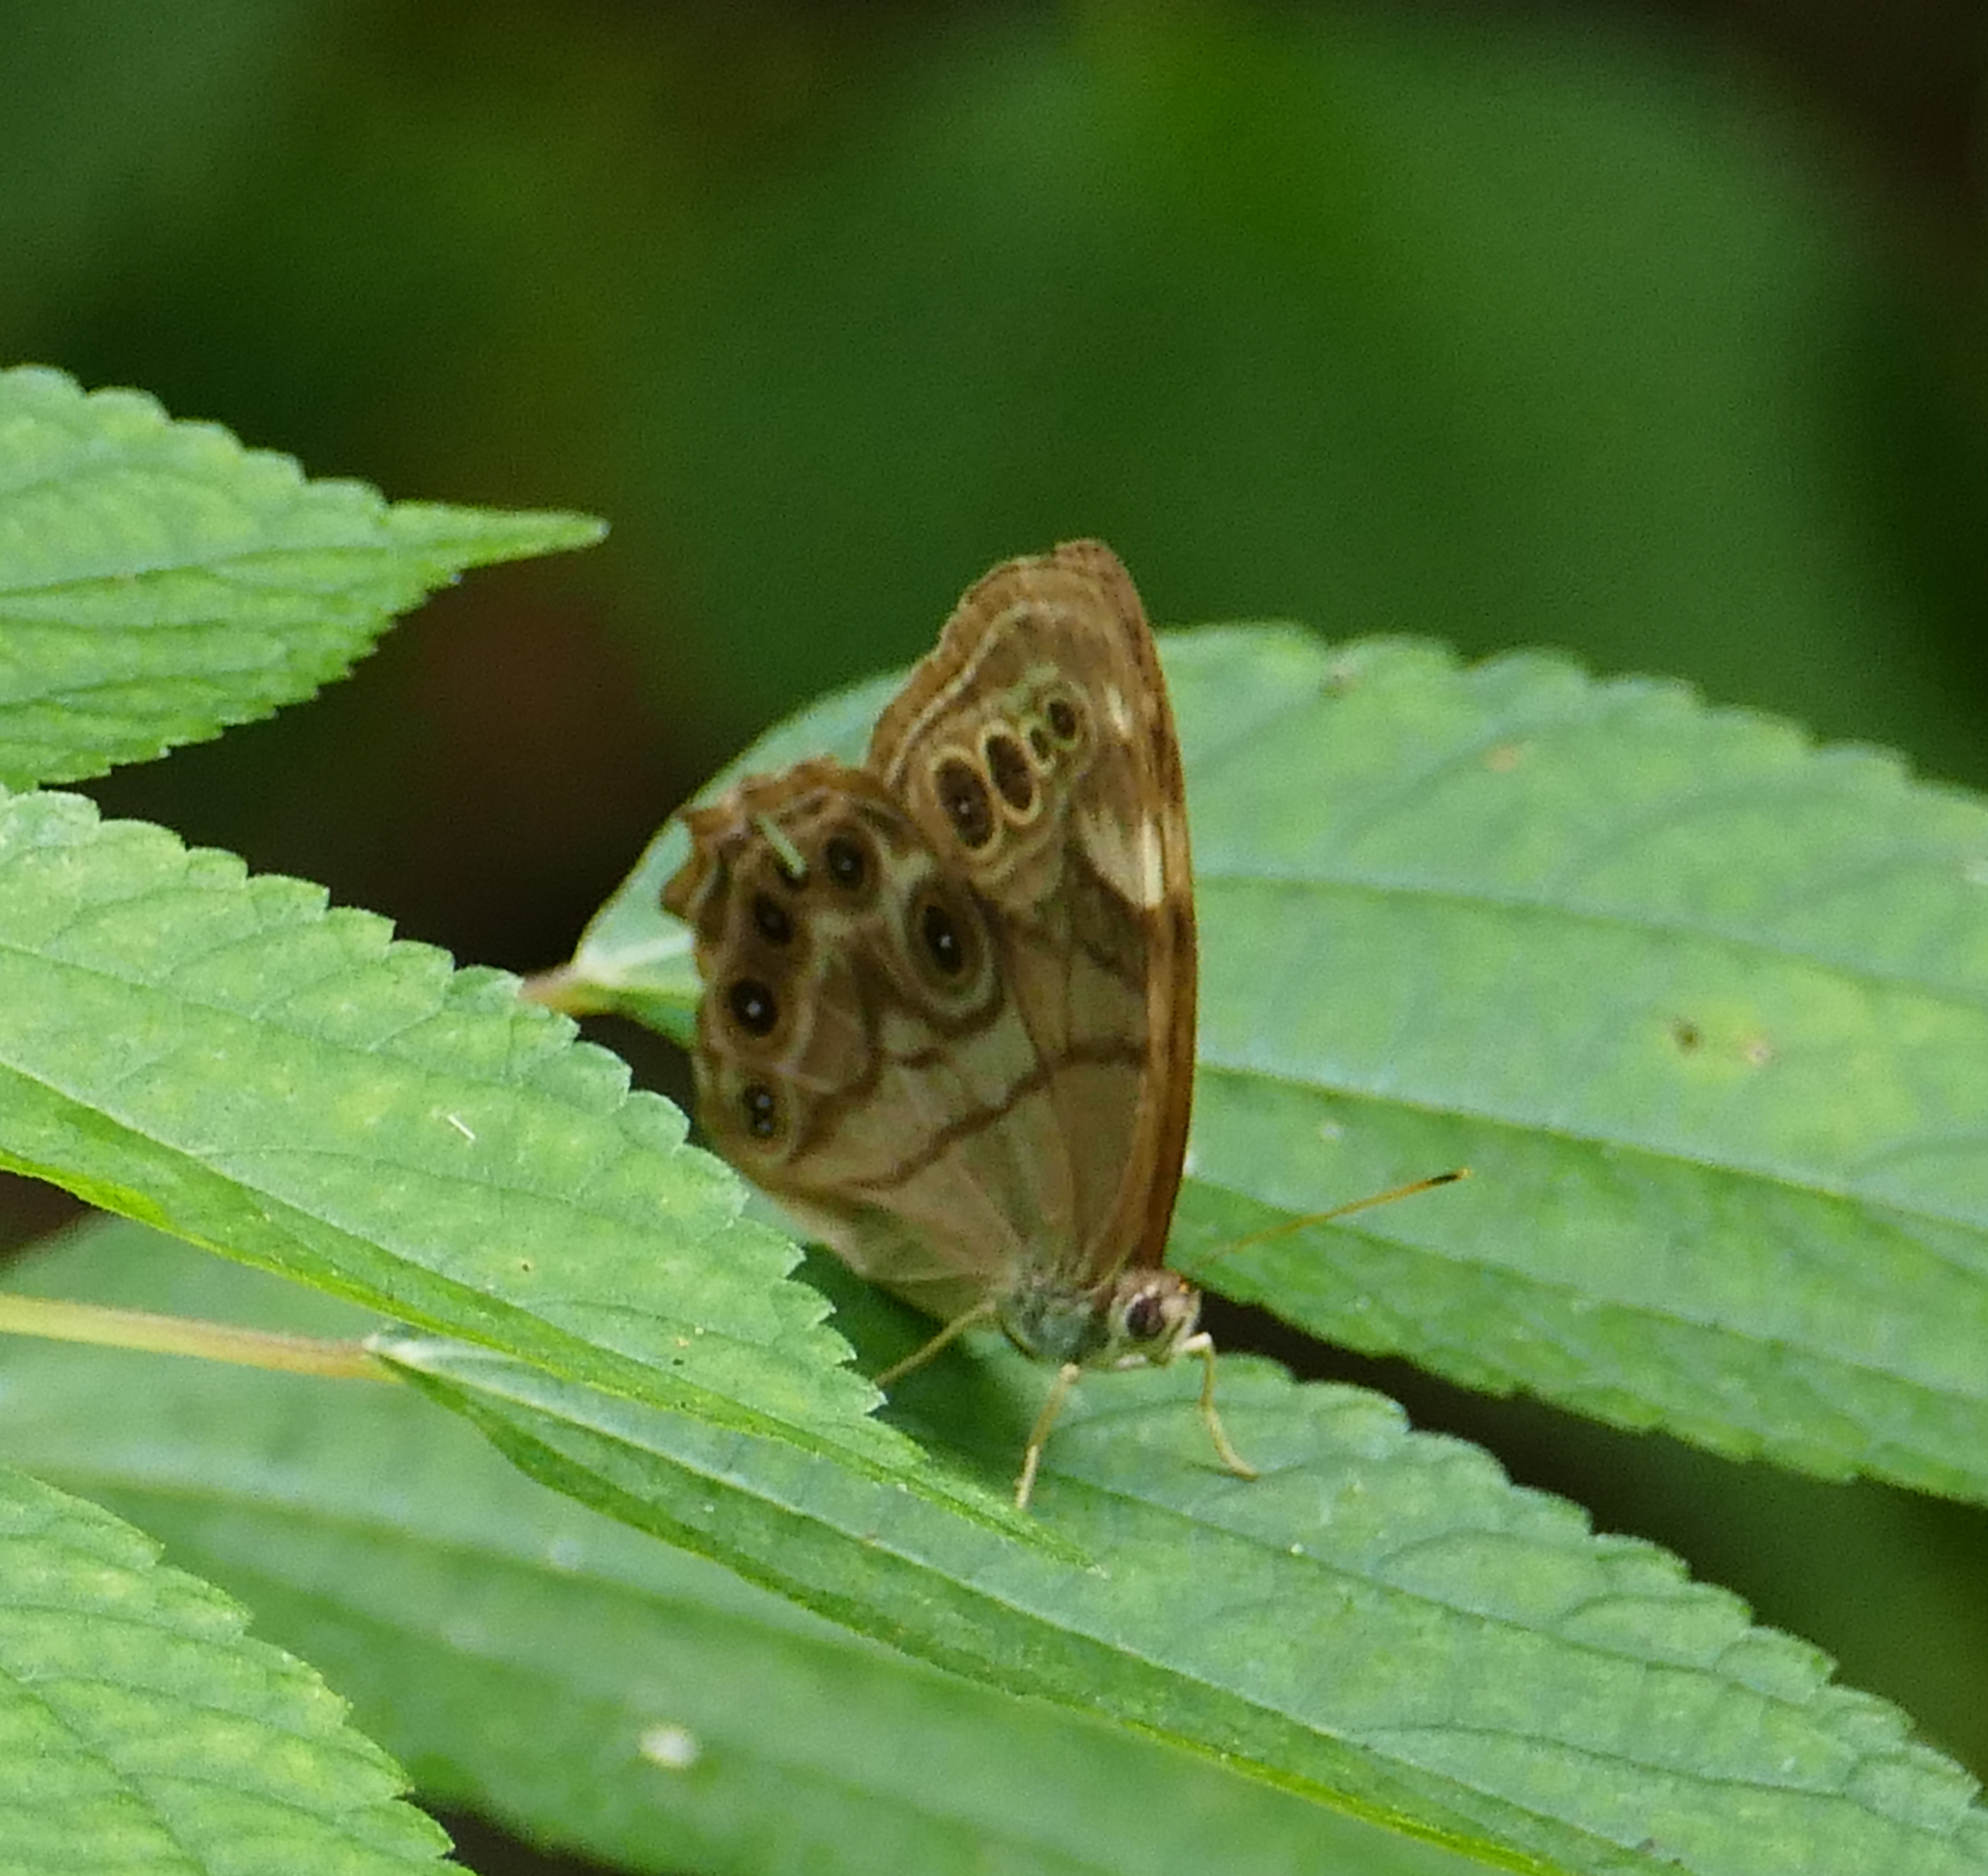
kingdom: Animalia
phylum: Arthropoda
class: Insecta
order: Lepidoptera
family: Nymphalidae
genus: Lethe
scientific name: Lethe anthedon
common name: Northern pearly-eye
